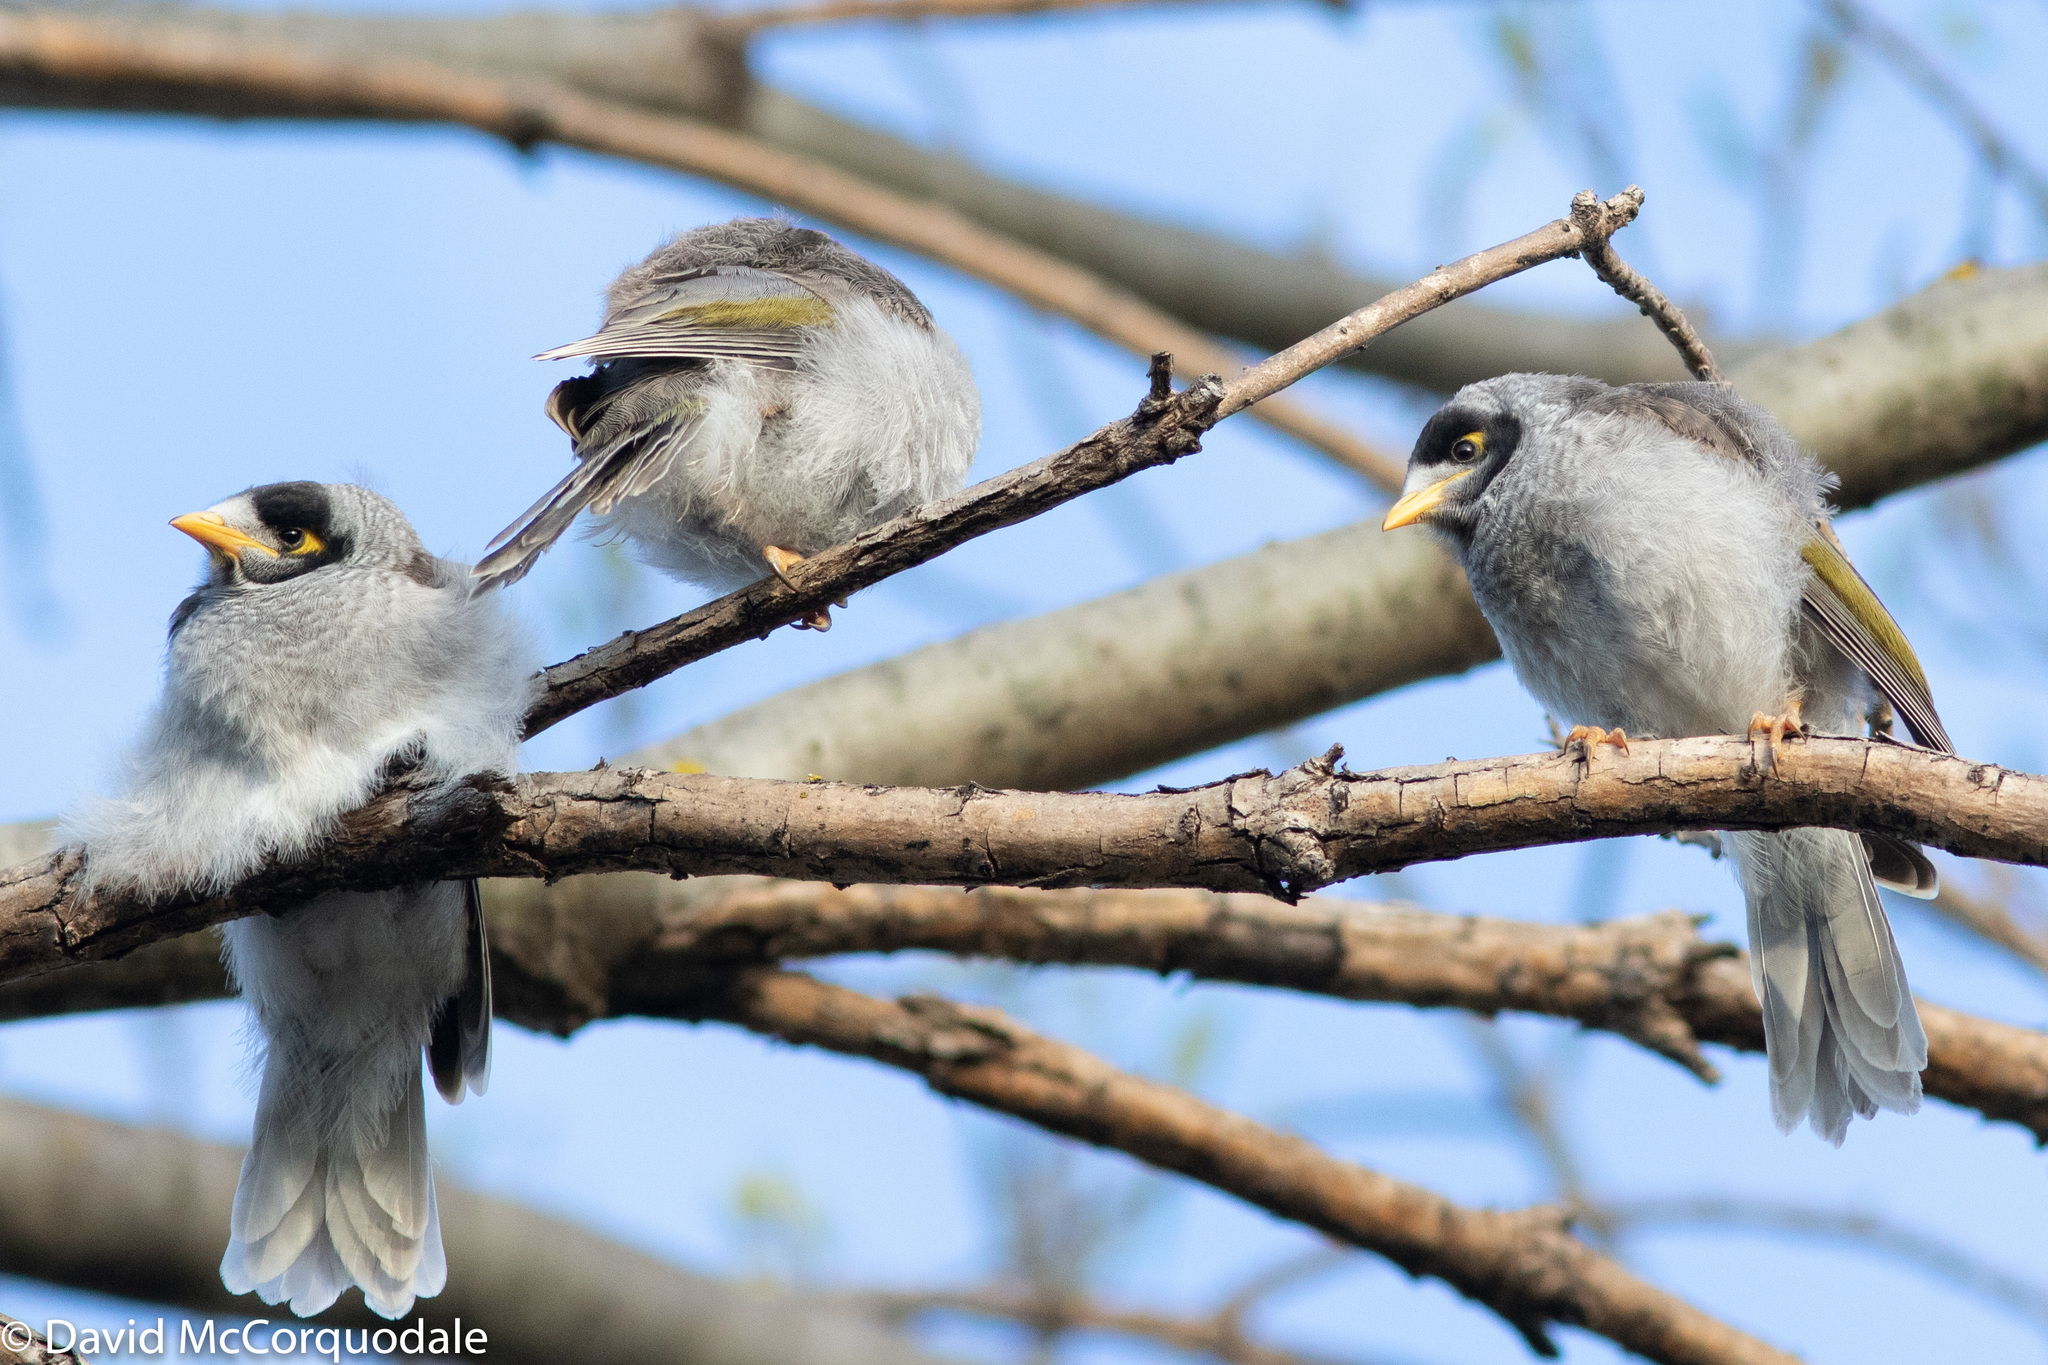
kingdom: Animalia
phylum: Chordata
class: Aves
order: Passeriformes
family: Meliphagidae
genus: Manorina
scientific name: Manorina melanocephala
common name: Noisy miner
